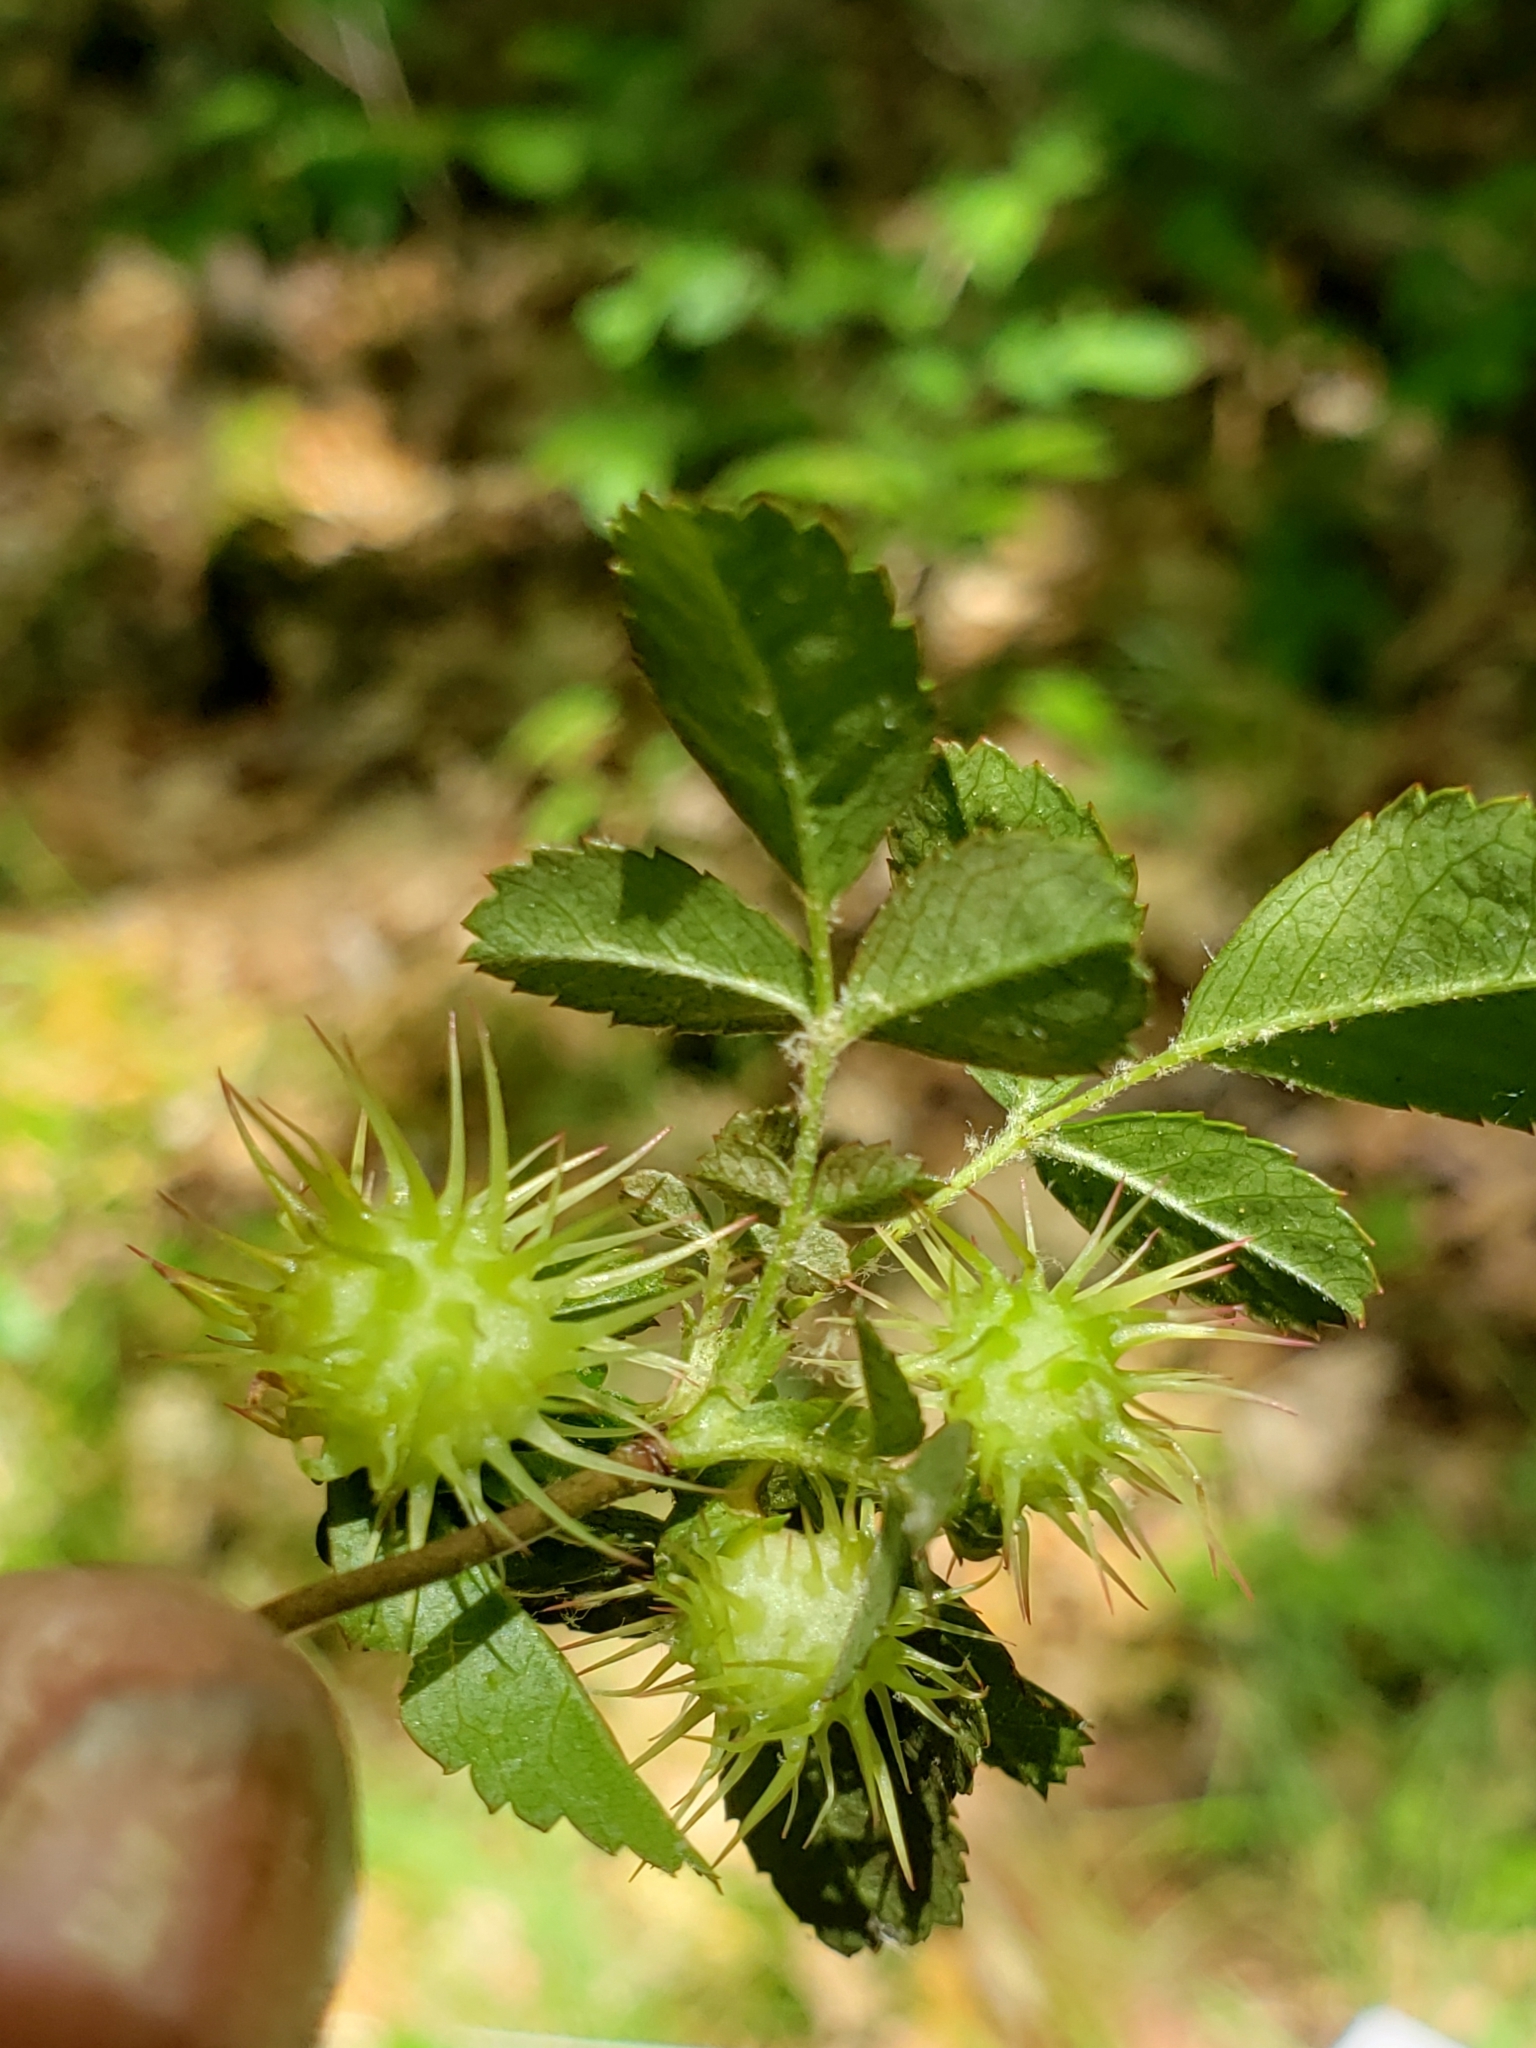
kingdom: Animalia
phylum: Arthropoda
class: Insecta
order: Hymenoptera
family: Cynipidae
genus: Diplolepis
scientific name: Diplolepis polita
